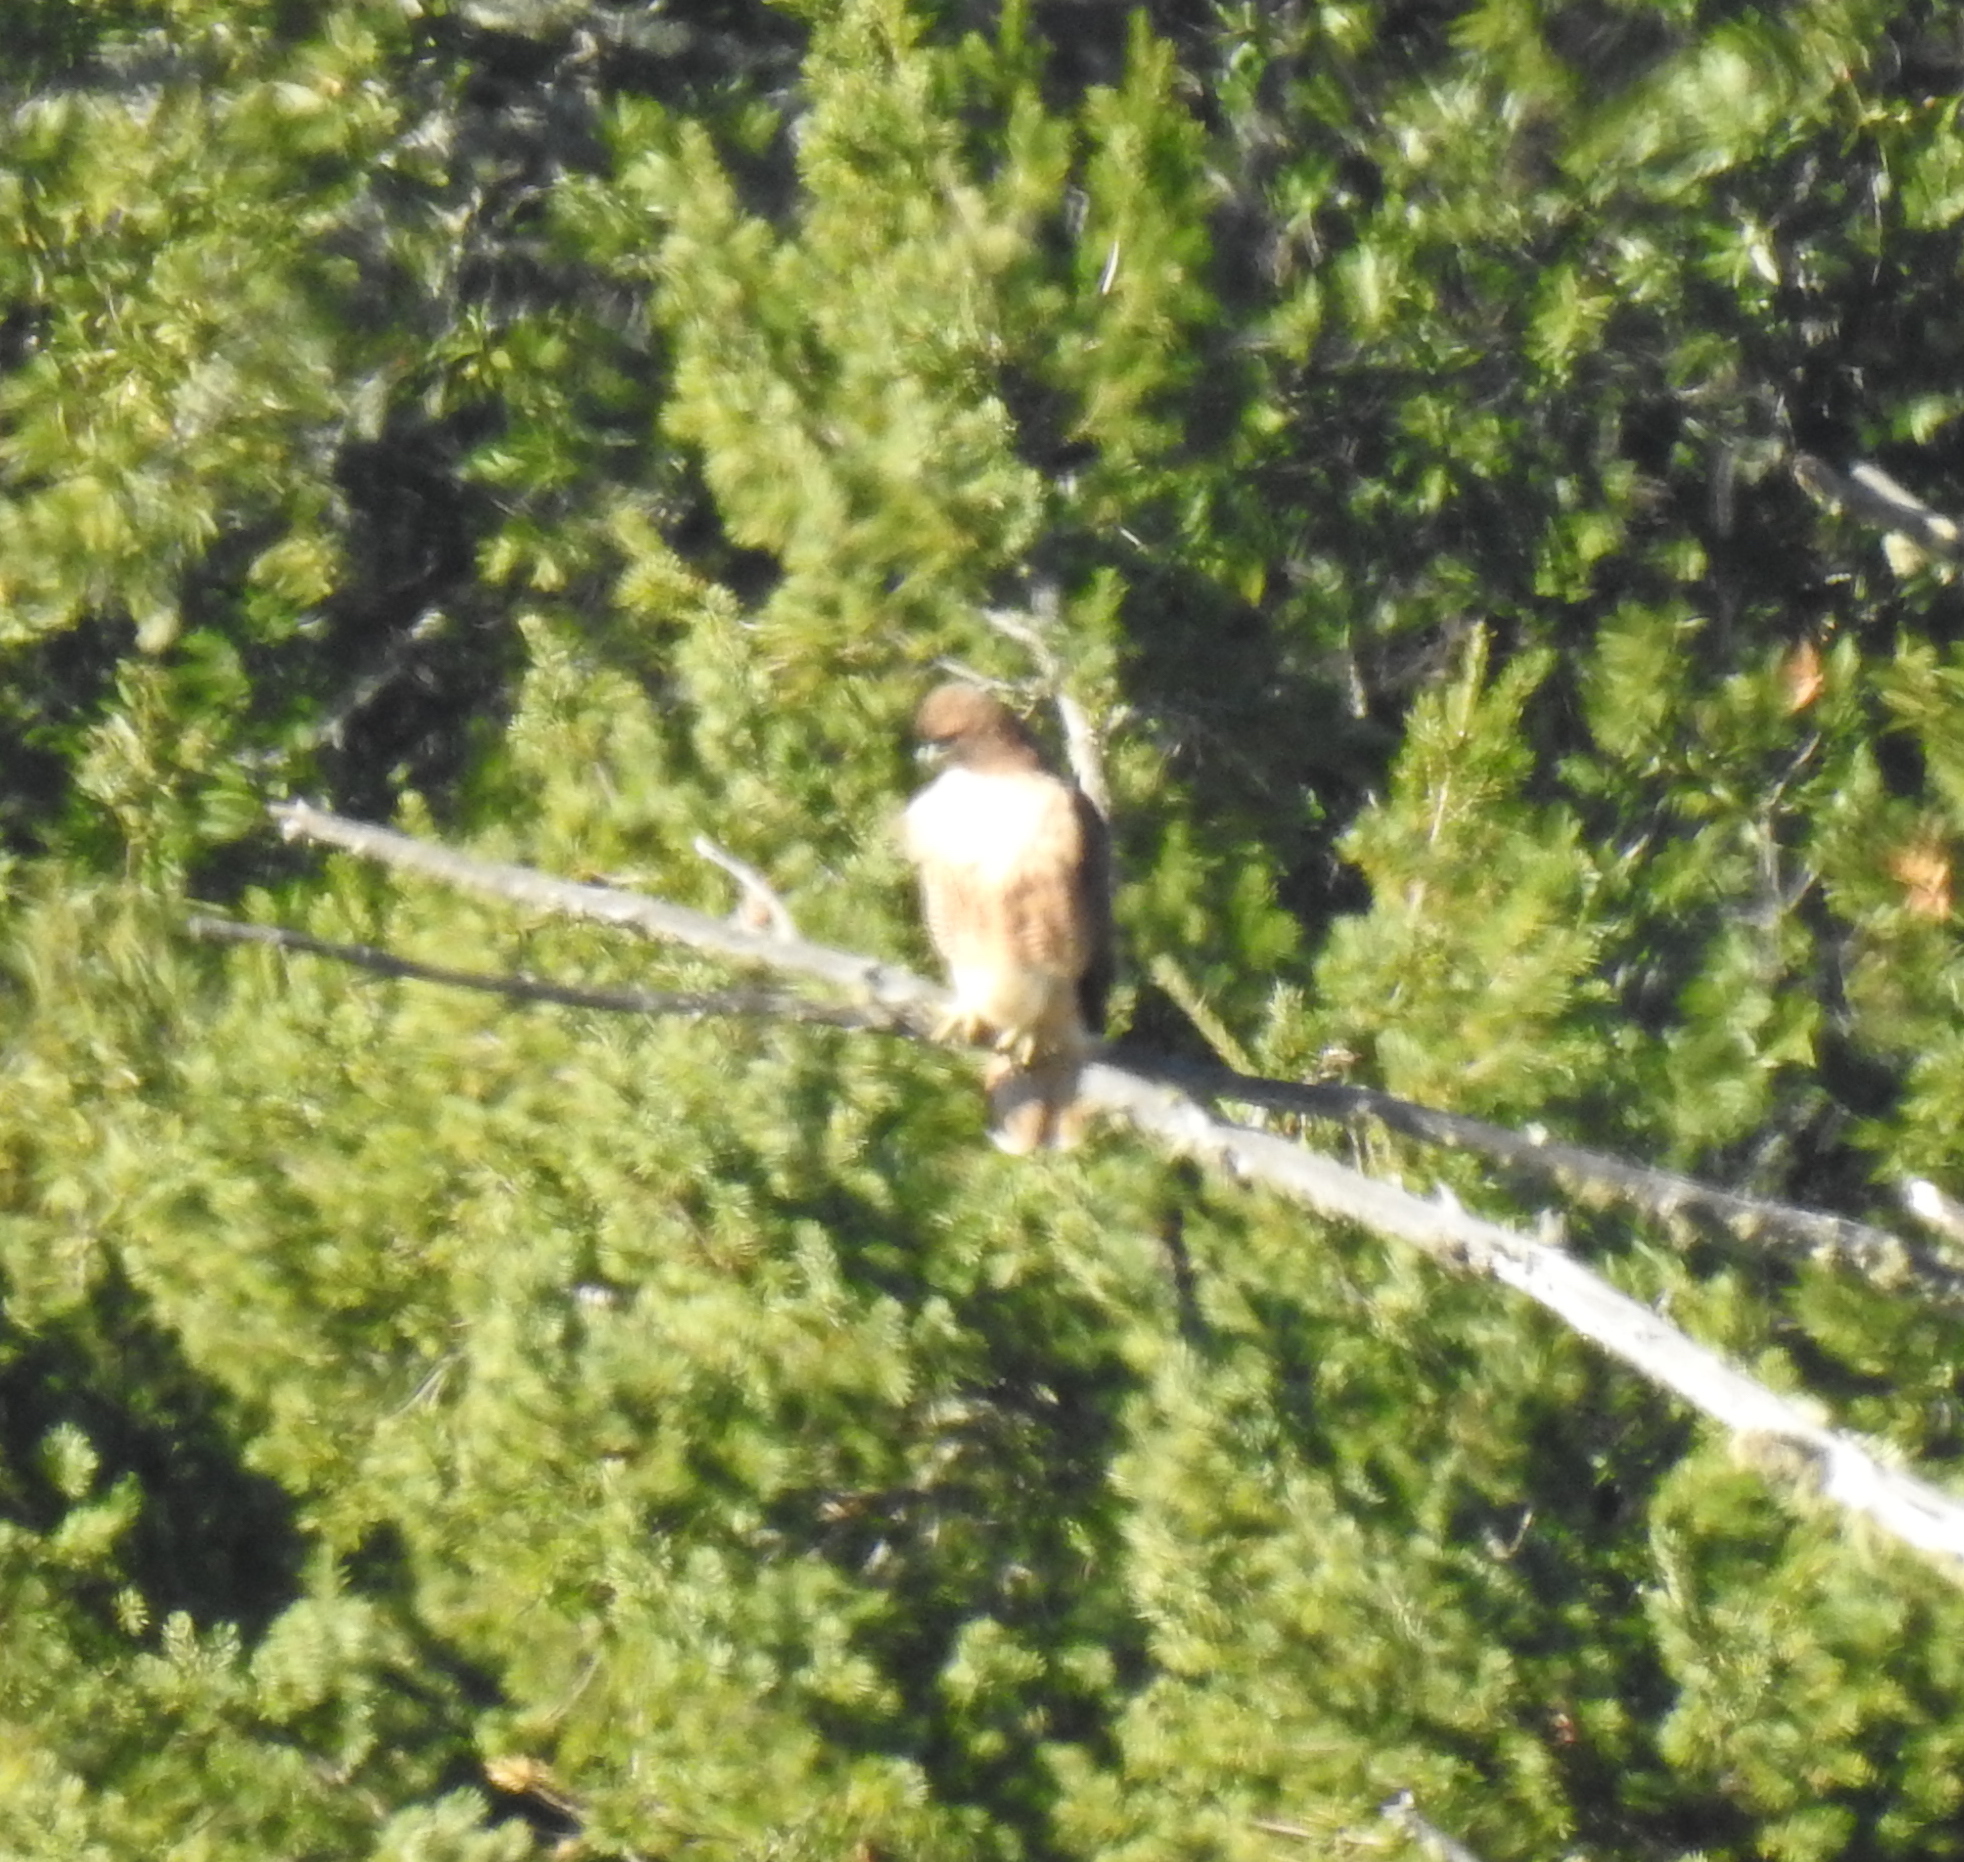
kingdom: Animalia
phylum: Chordata
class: Aves
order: Accipitriformes
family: Accipitridae
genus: Buteo
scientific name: Buteo jamaicensis
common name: Red-tailed hawk
